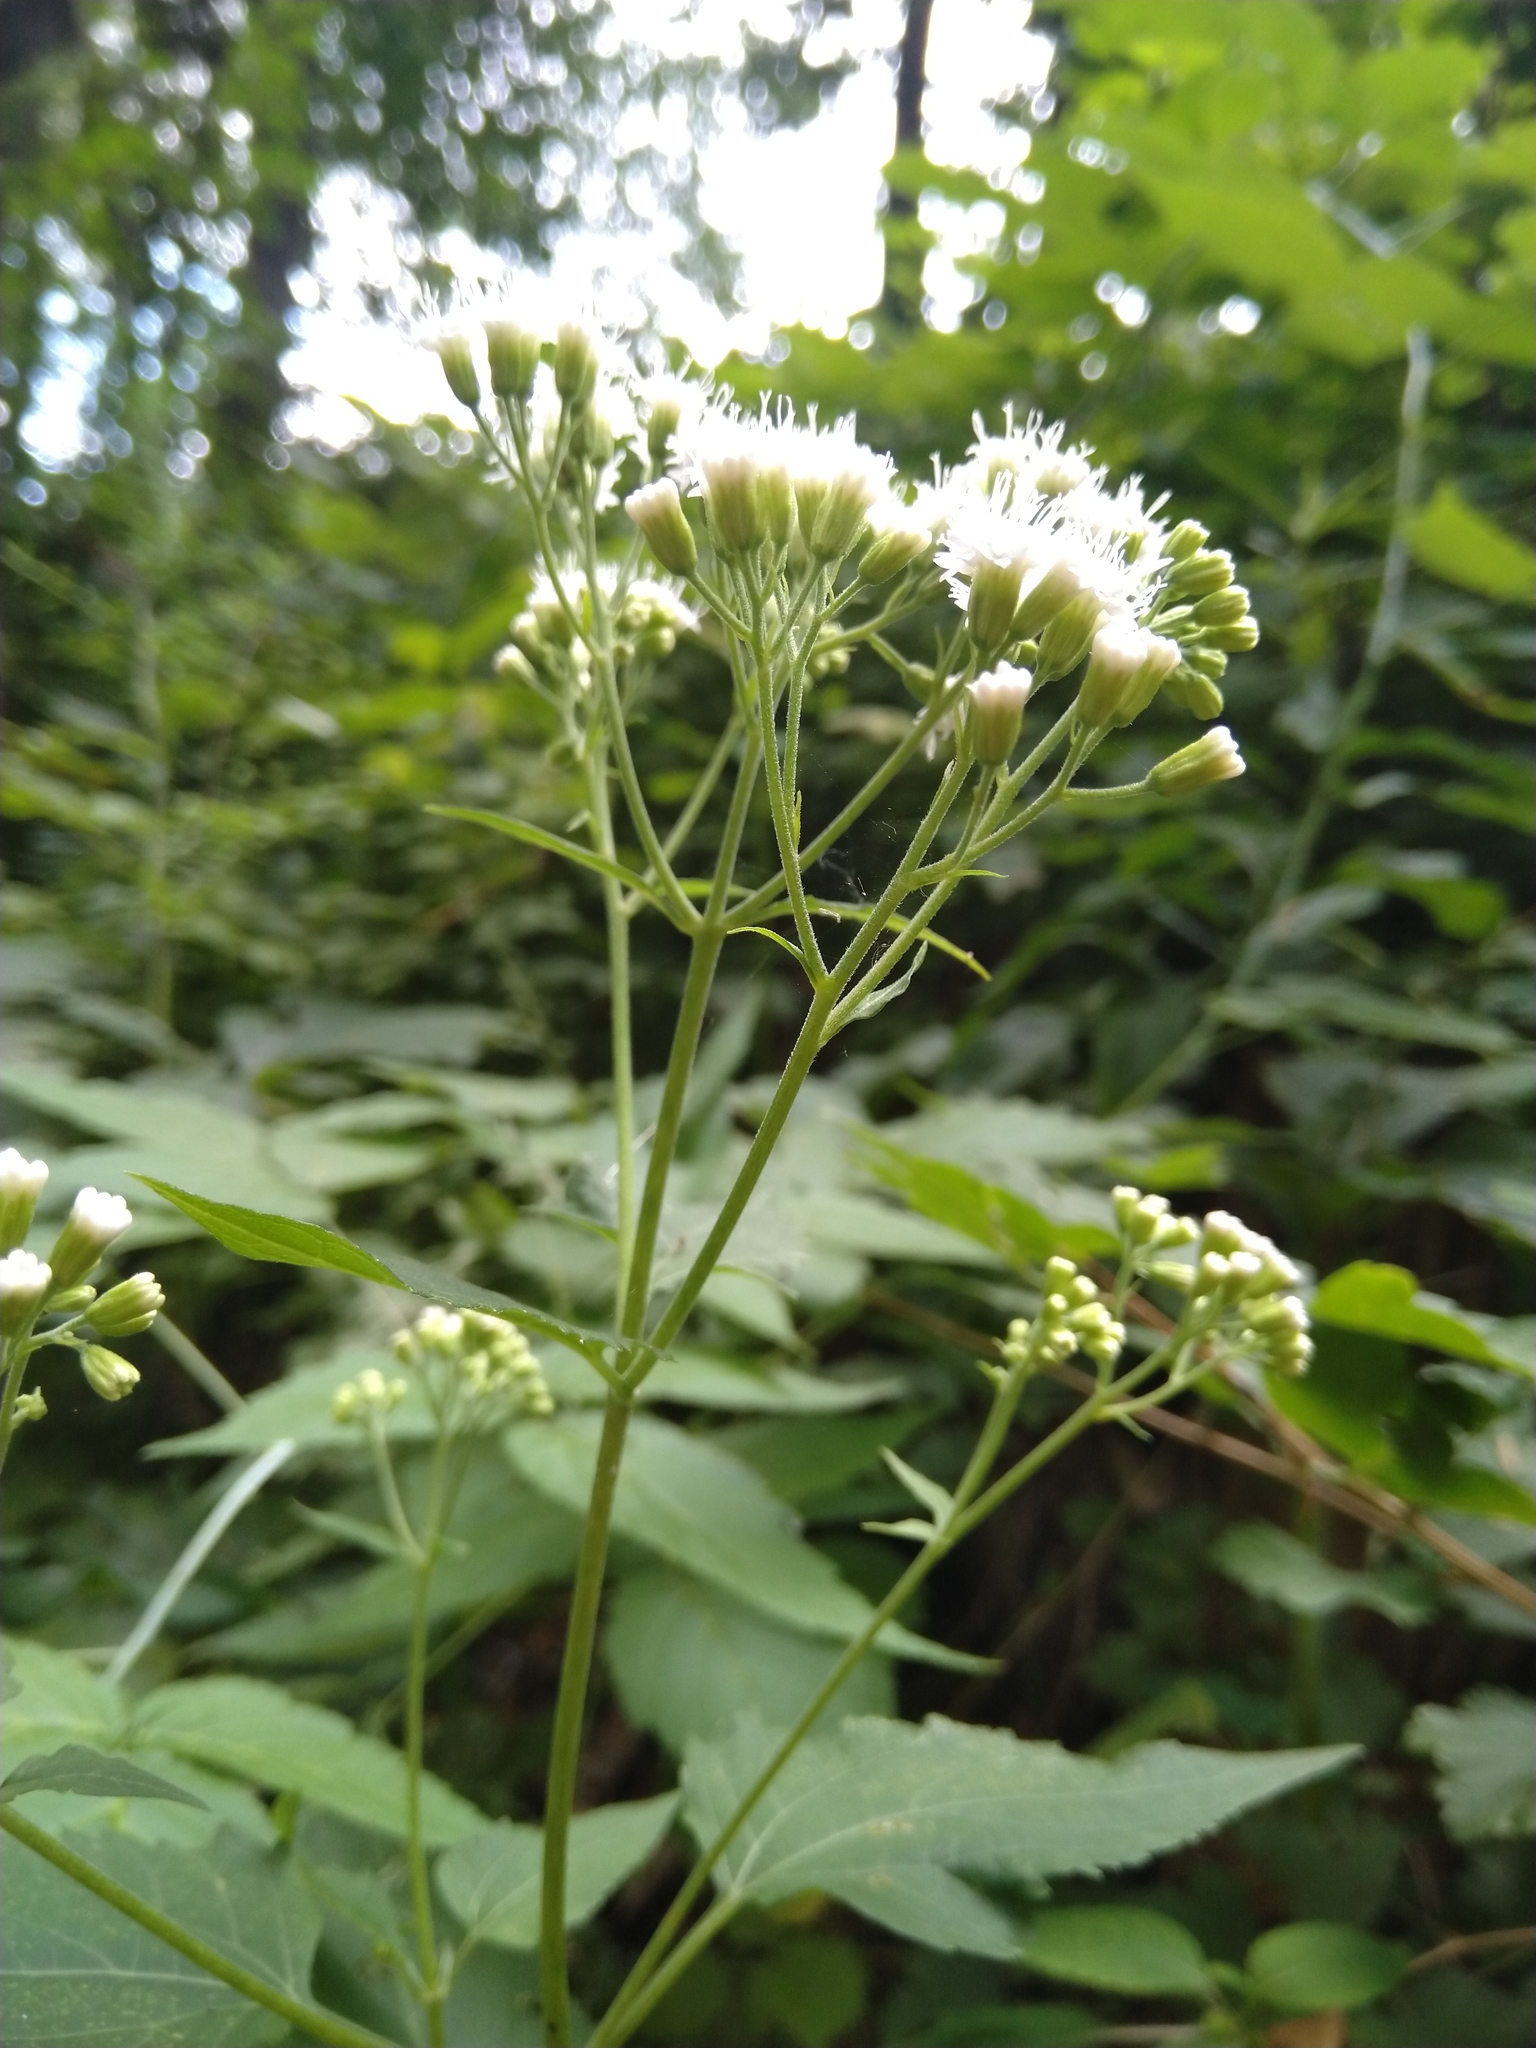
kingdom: Plantae
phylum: Tracheophyta
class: Magnoliopsida
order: Asterales
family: Asteraceae
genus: Ageratina
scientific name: Ageratina altissima
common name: White snakeroot
